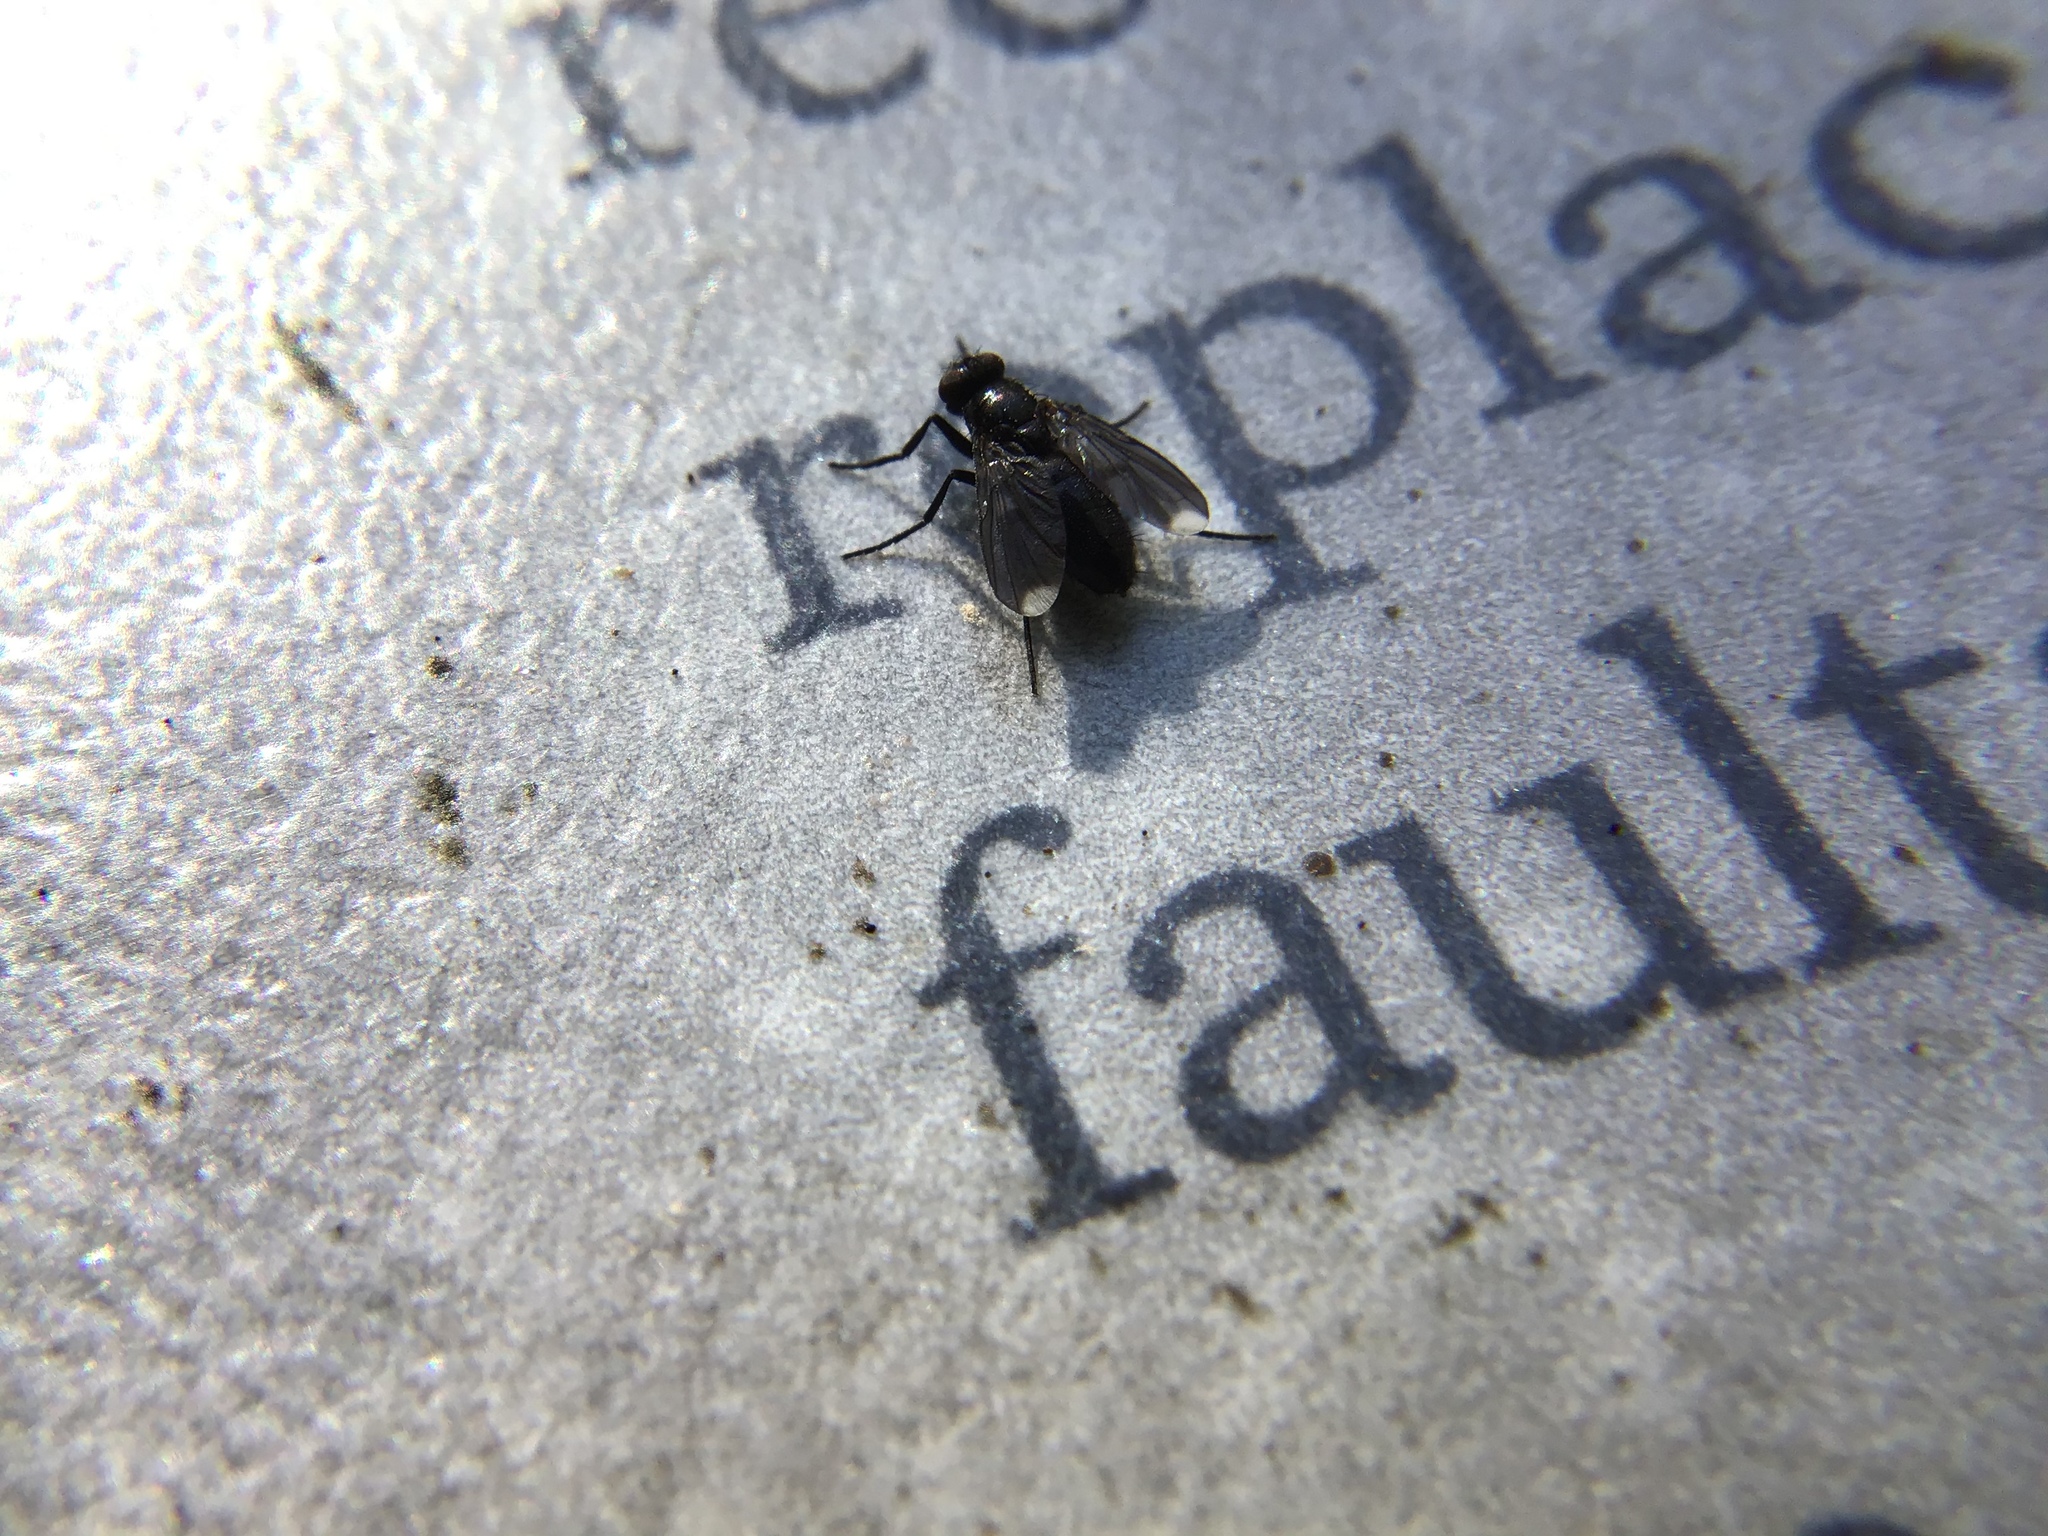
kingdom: Animalia
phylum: Arthropoda
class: Insecta
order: Diptera
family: Calliphoridae
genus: Melanophora
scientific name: Melanophora roralis
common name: Smoky-winged woodlouse-fly
